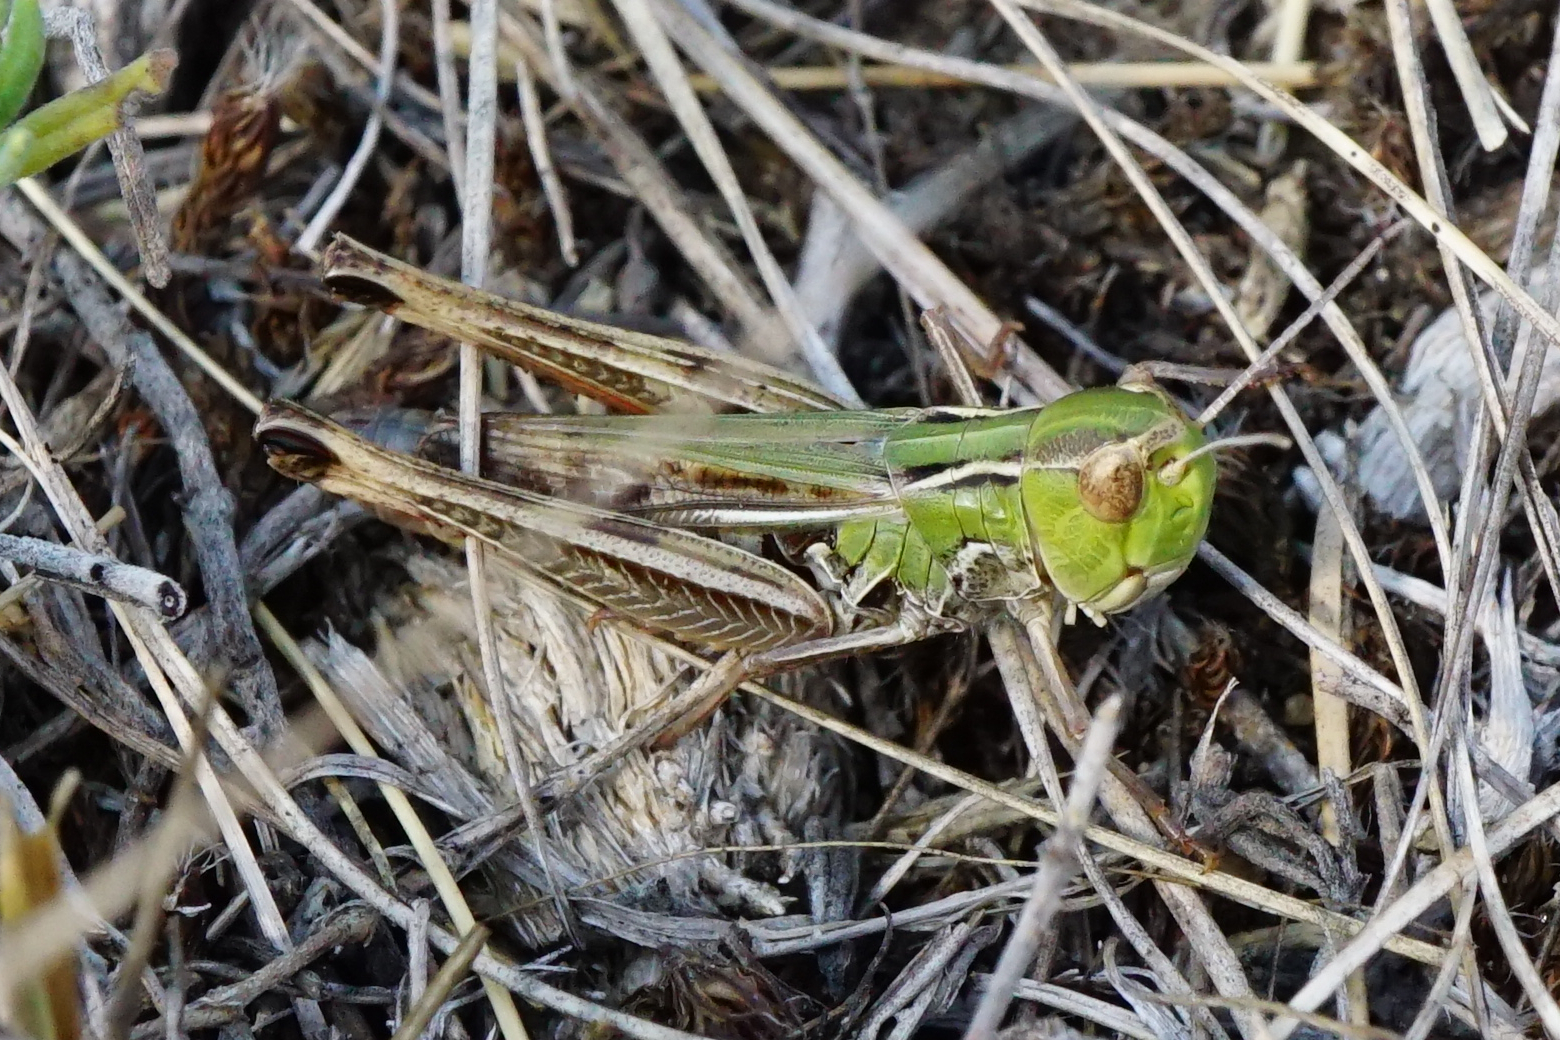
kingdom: Animalia
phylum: Arthropoda
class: Insecta
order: Orthoptera
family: Acrididae
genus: Stenobothrus
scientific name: Stenobothrus fischeri
